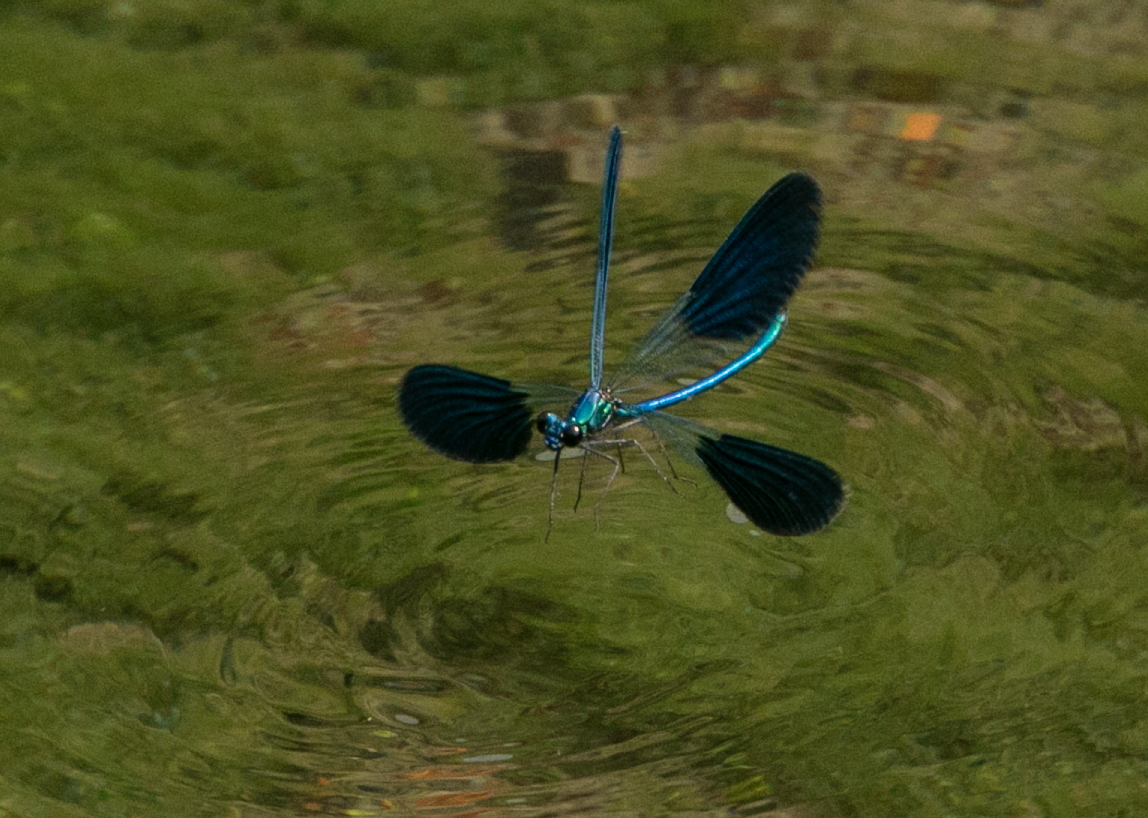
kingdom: Animalia
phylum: Arthropoda
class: Insecta
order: Odonata
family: Calopterygidae
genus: Calopteryx
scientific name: Calopteryx splendens
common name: Banded demoiselle
